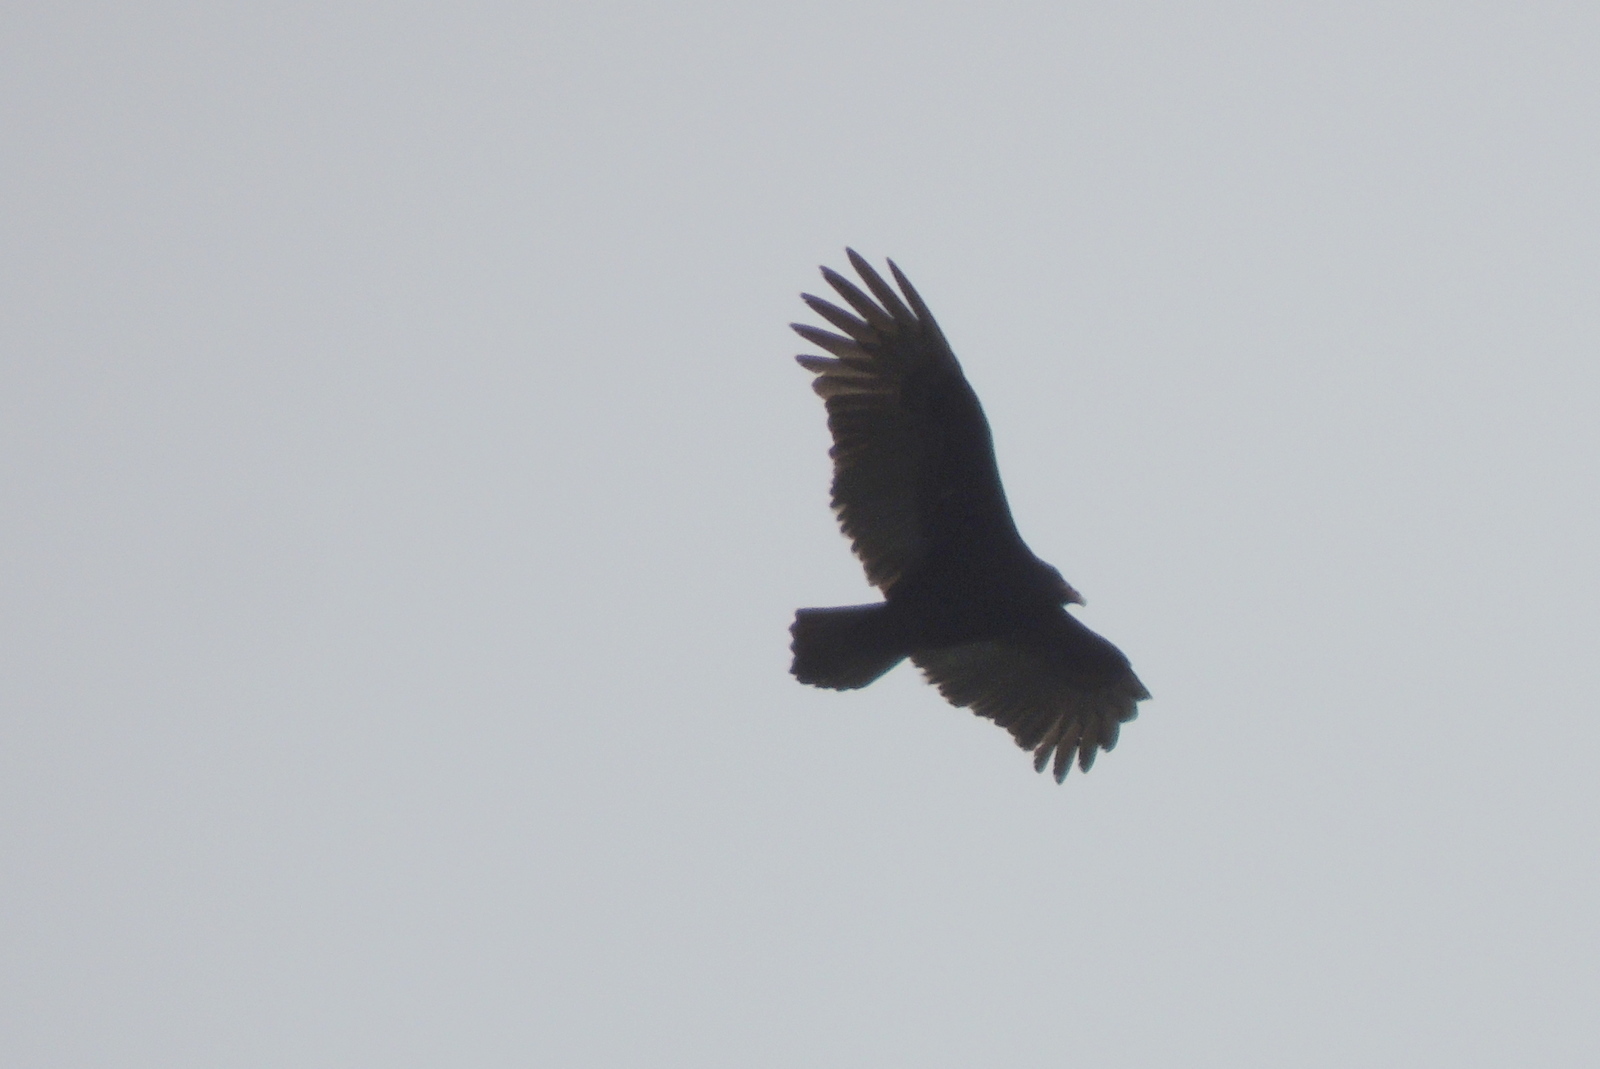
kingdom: Animalia
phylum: Chordata
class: Aves
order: Accipitriformes
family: Cathartidae
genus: Cathartes
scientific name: Cathartes aura
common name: Turkey vulture
